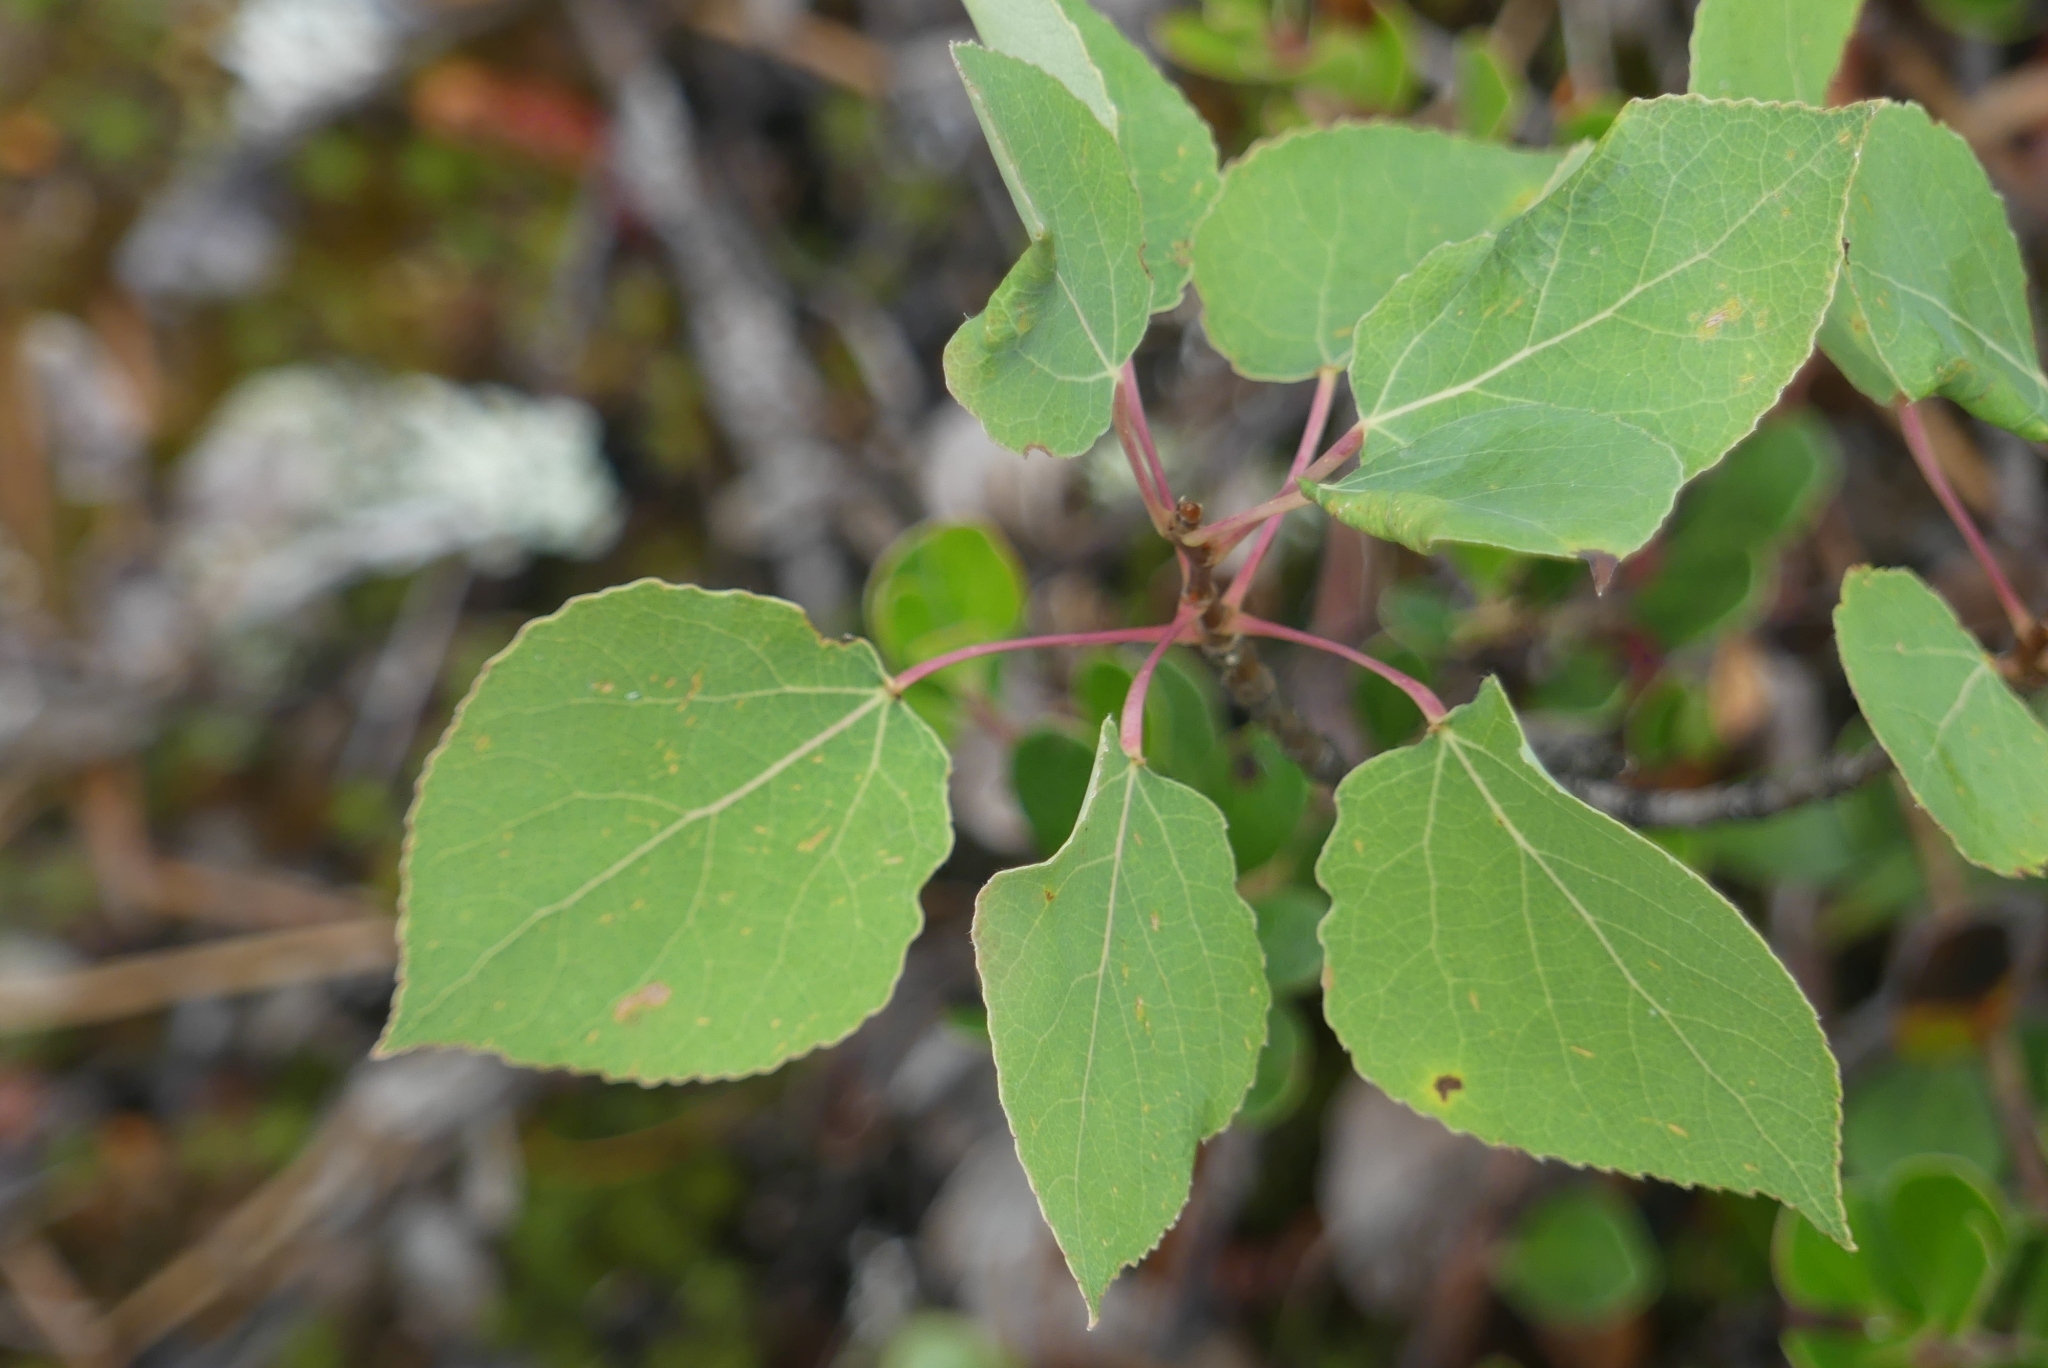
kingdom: Plantae
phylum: Tracheophyta
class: Magnoliopsida
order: Malpighiales
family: Salicaceae
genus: Populus
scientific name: Populus tremuloides
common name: Quaking aspen
